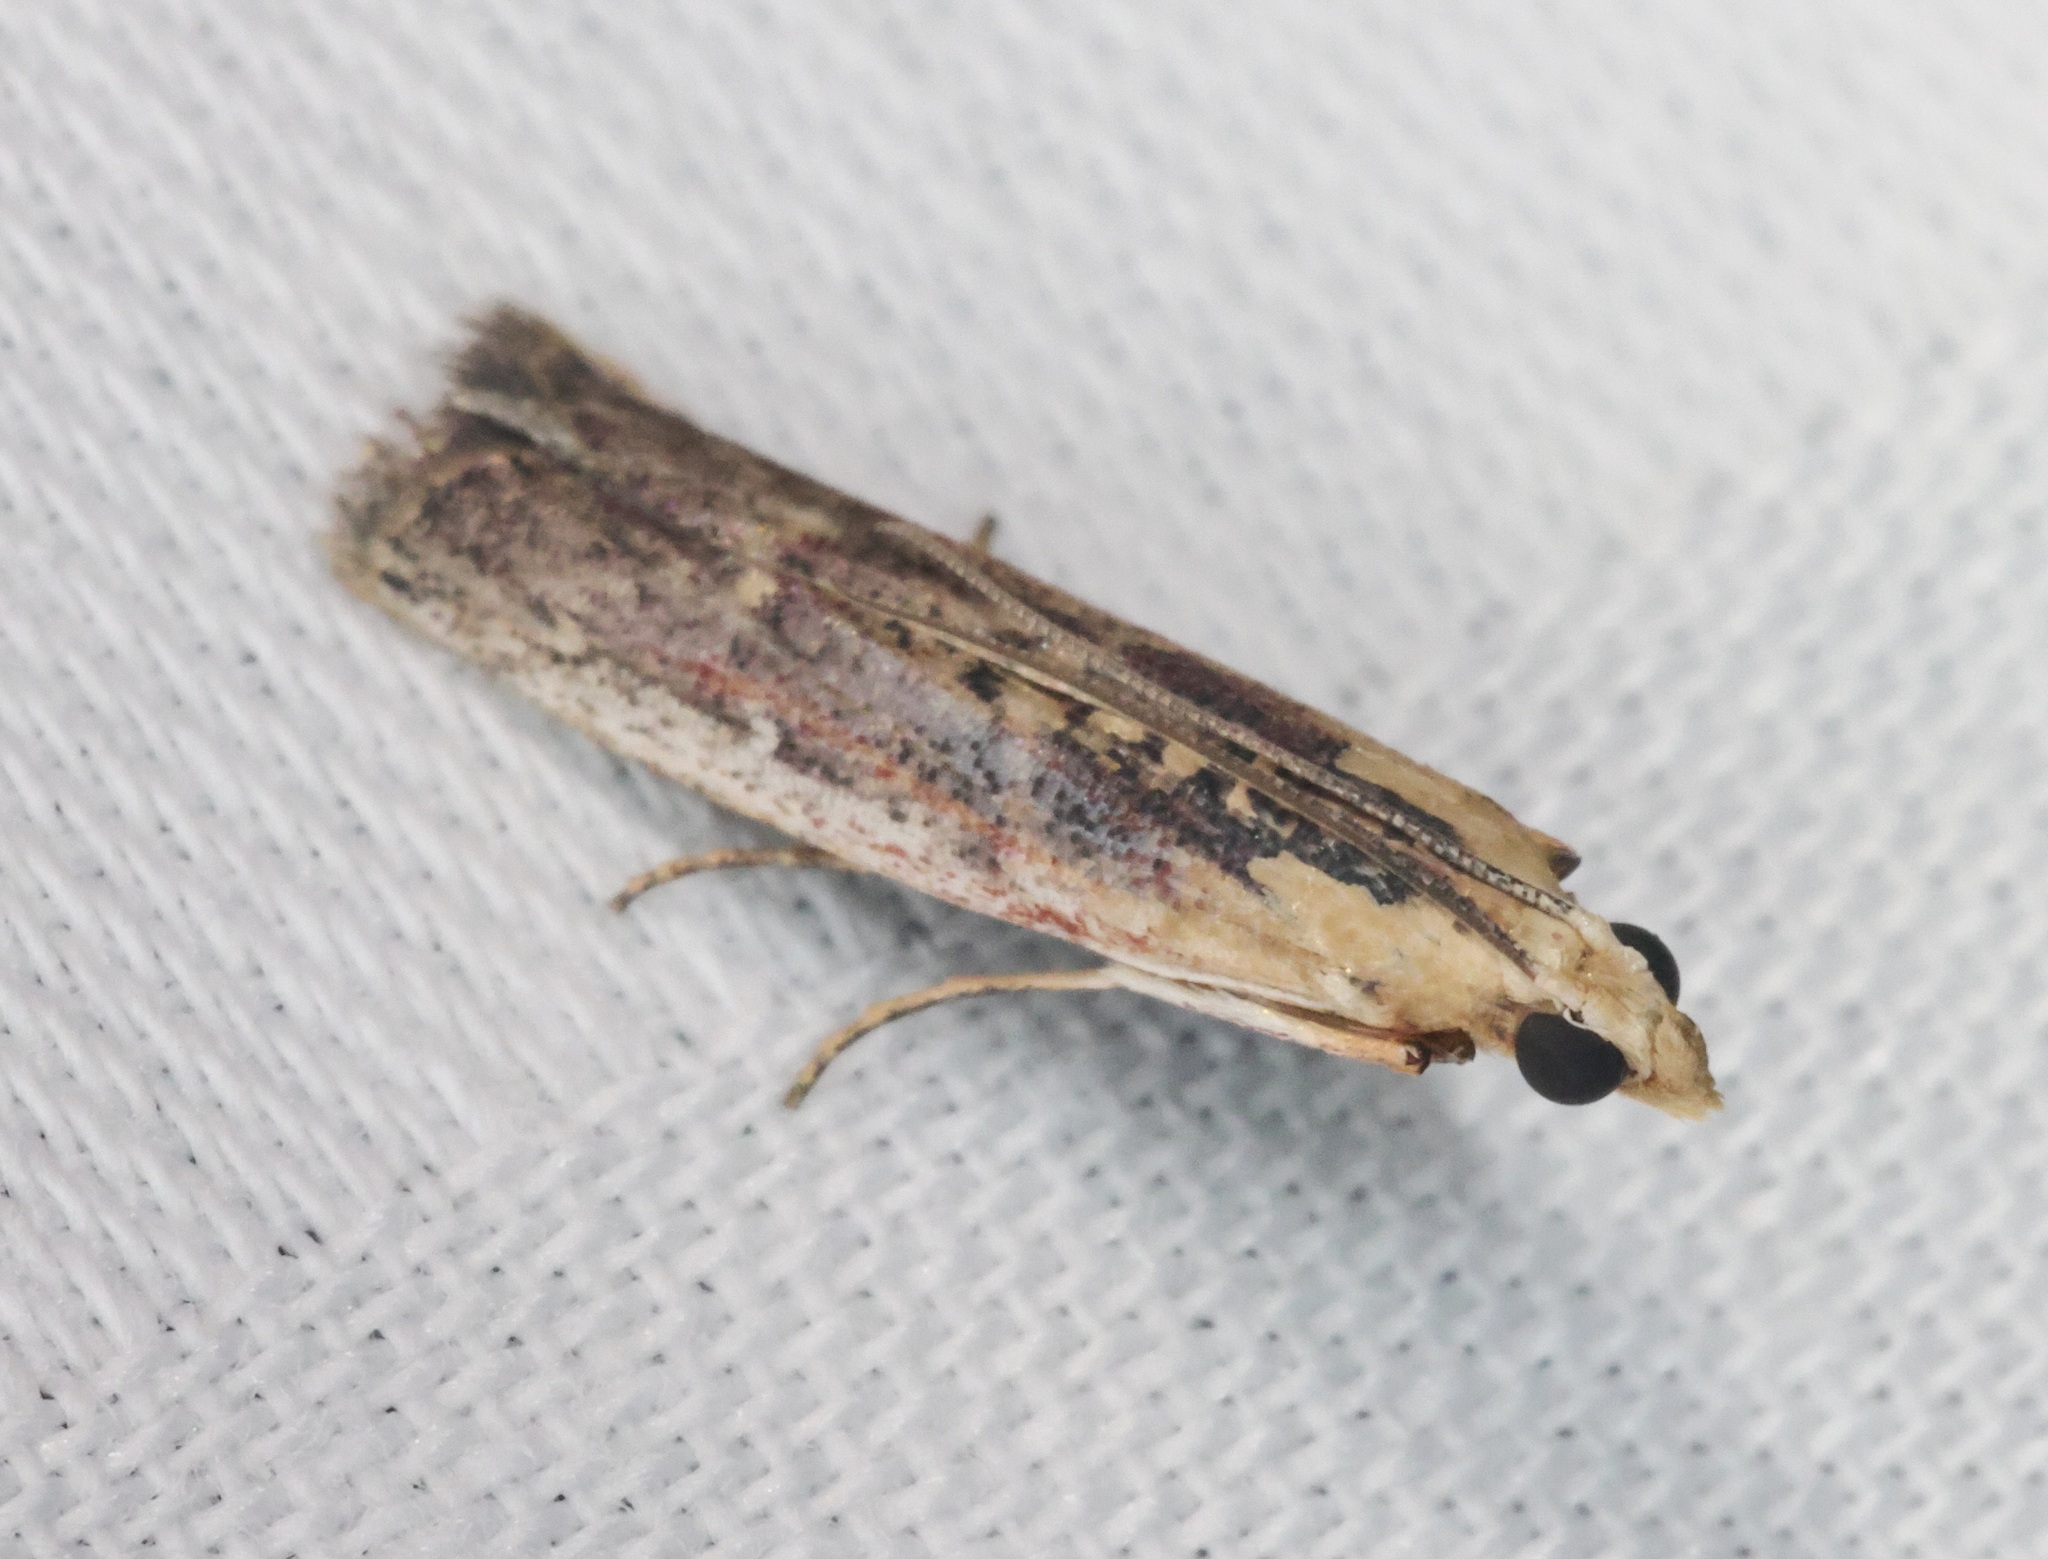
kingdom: Animalia
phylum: Arthropoda
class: Insecta
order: Lepidoptera
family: Pyralidae
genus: Cathyalia
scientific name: Cathyalia
